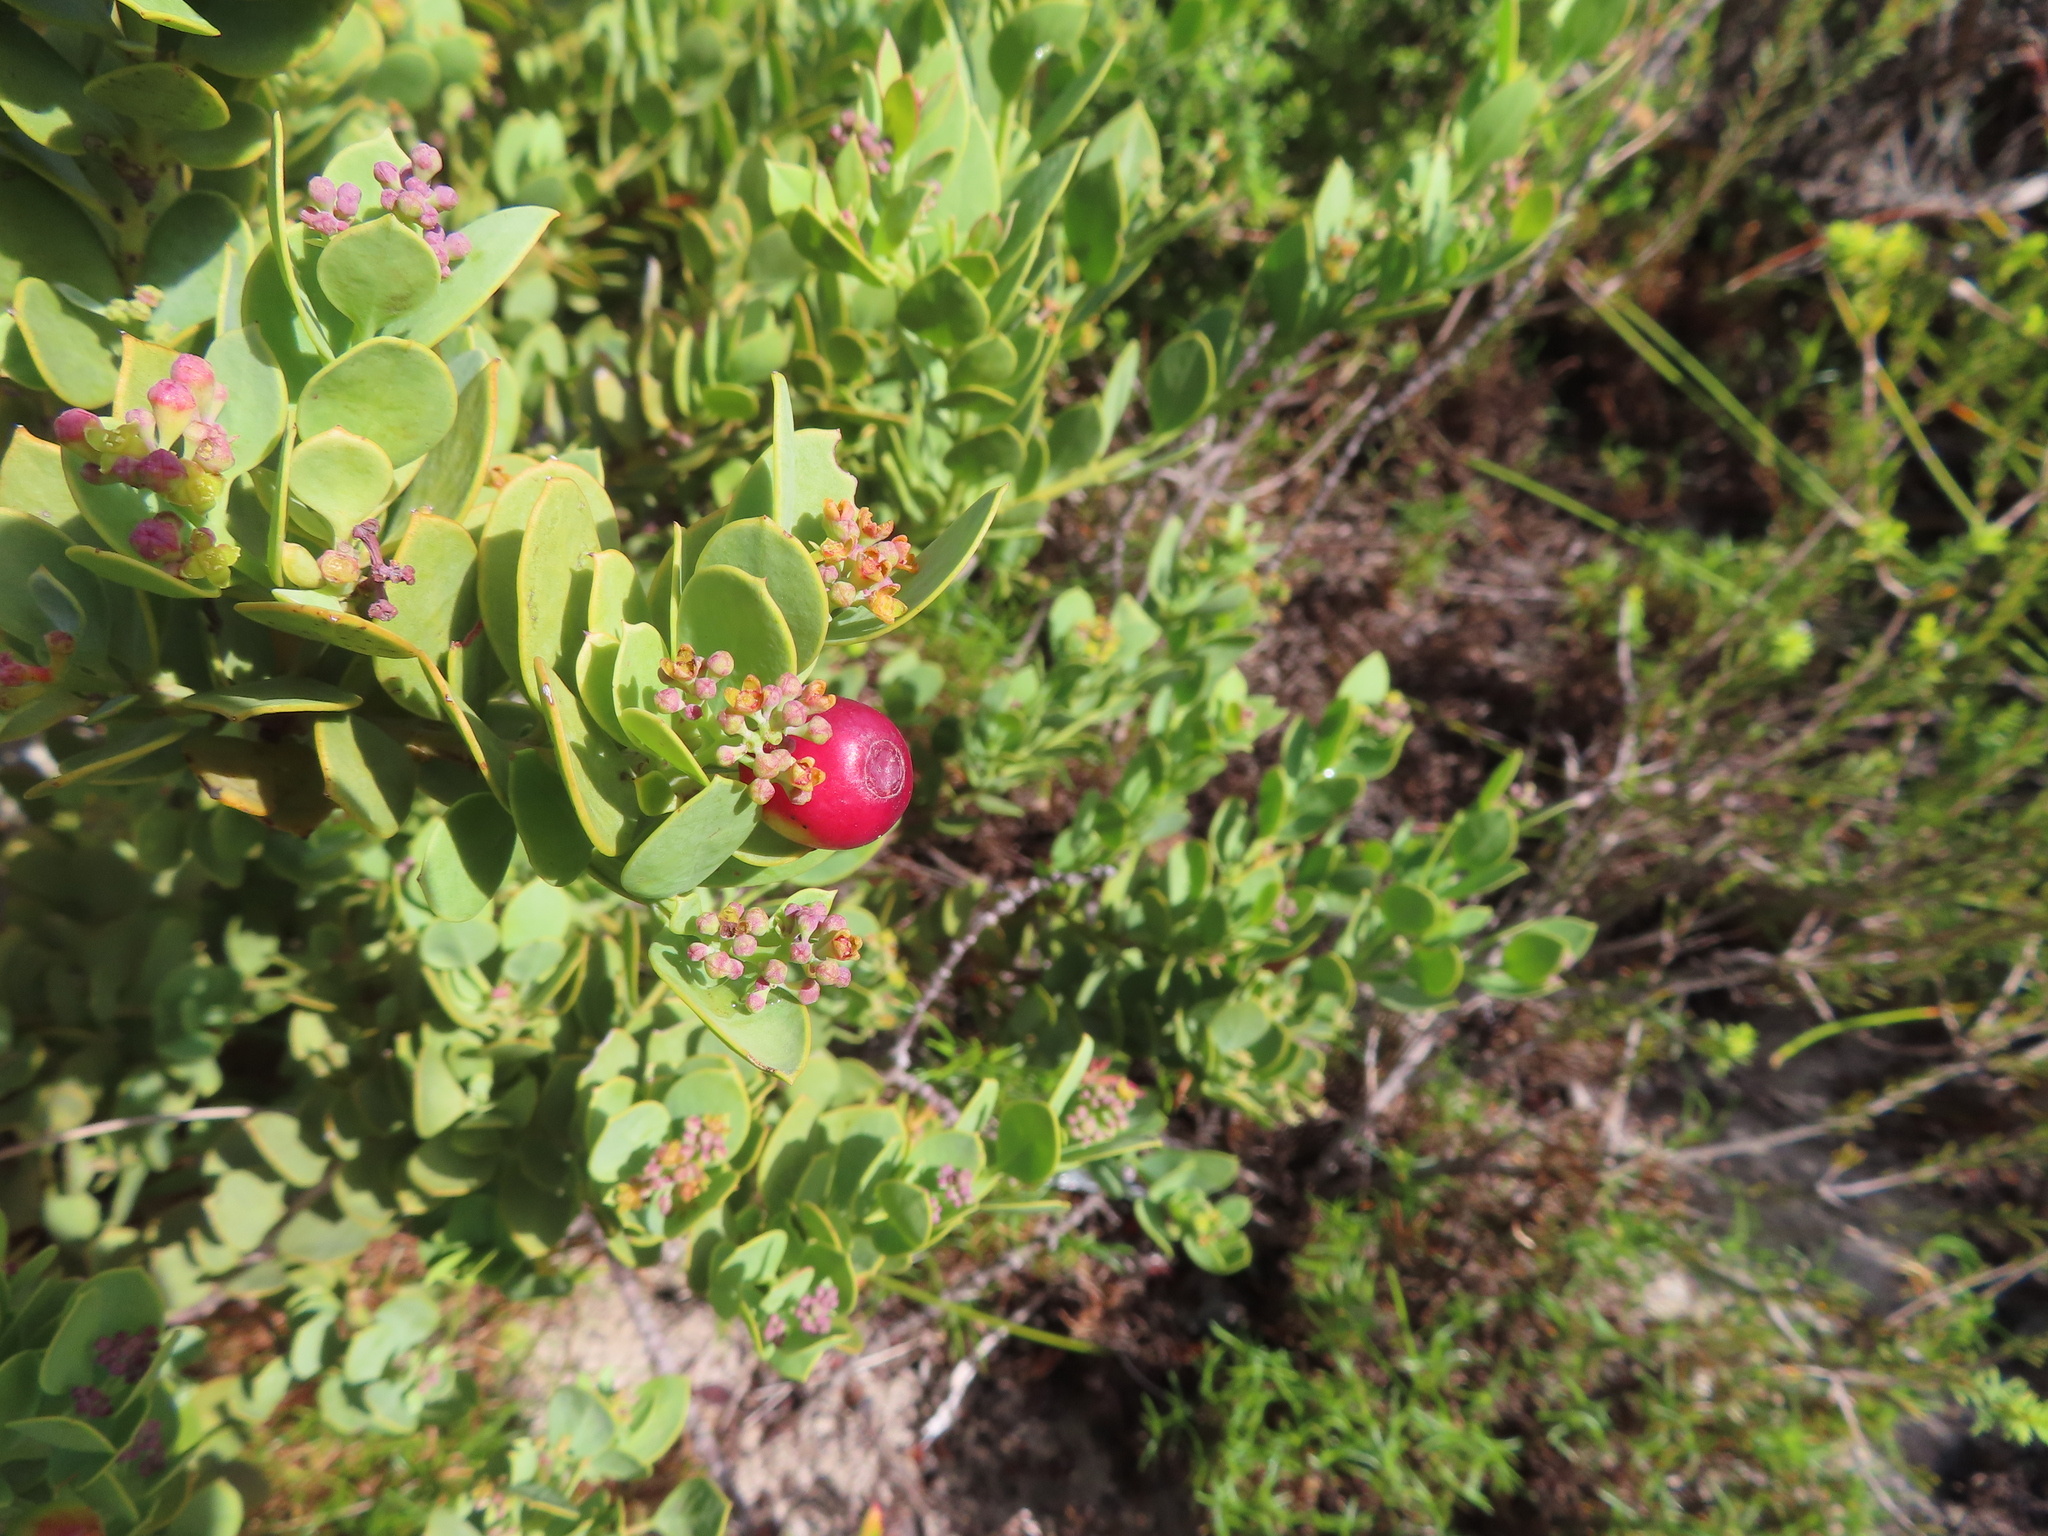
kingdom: Plantae
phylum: Tracheophyta
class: Magnoliopsida
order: Santalales
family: Santalaceae
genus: Osyris
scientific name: Osyris compressa
